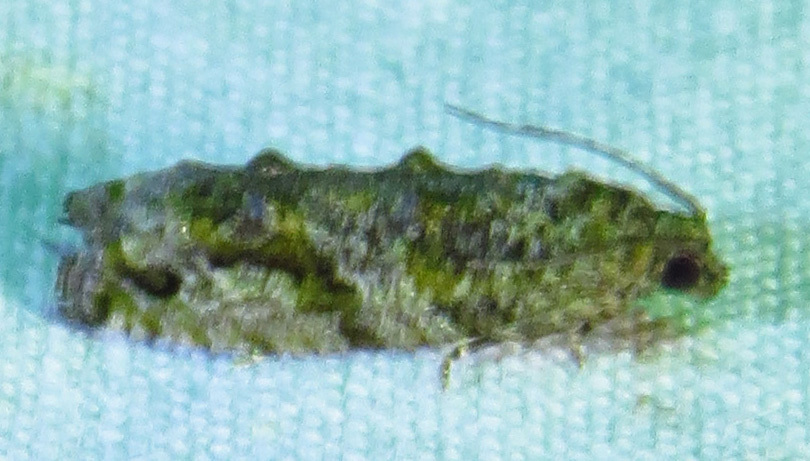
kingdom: Animalia
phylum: Arthropoda
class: Insecta
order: Lepidoptera
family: Tortricidae
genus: Proteoteras
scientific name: Proteoteras aesculana
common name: Maple twig borer moth
